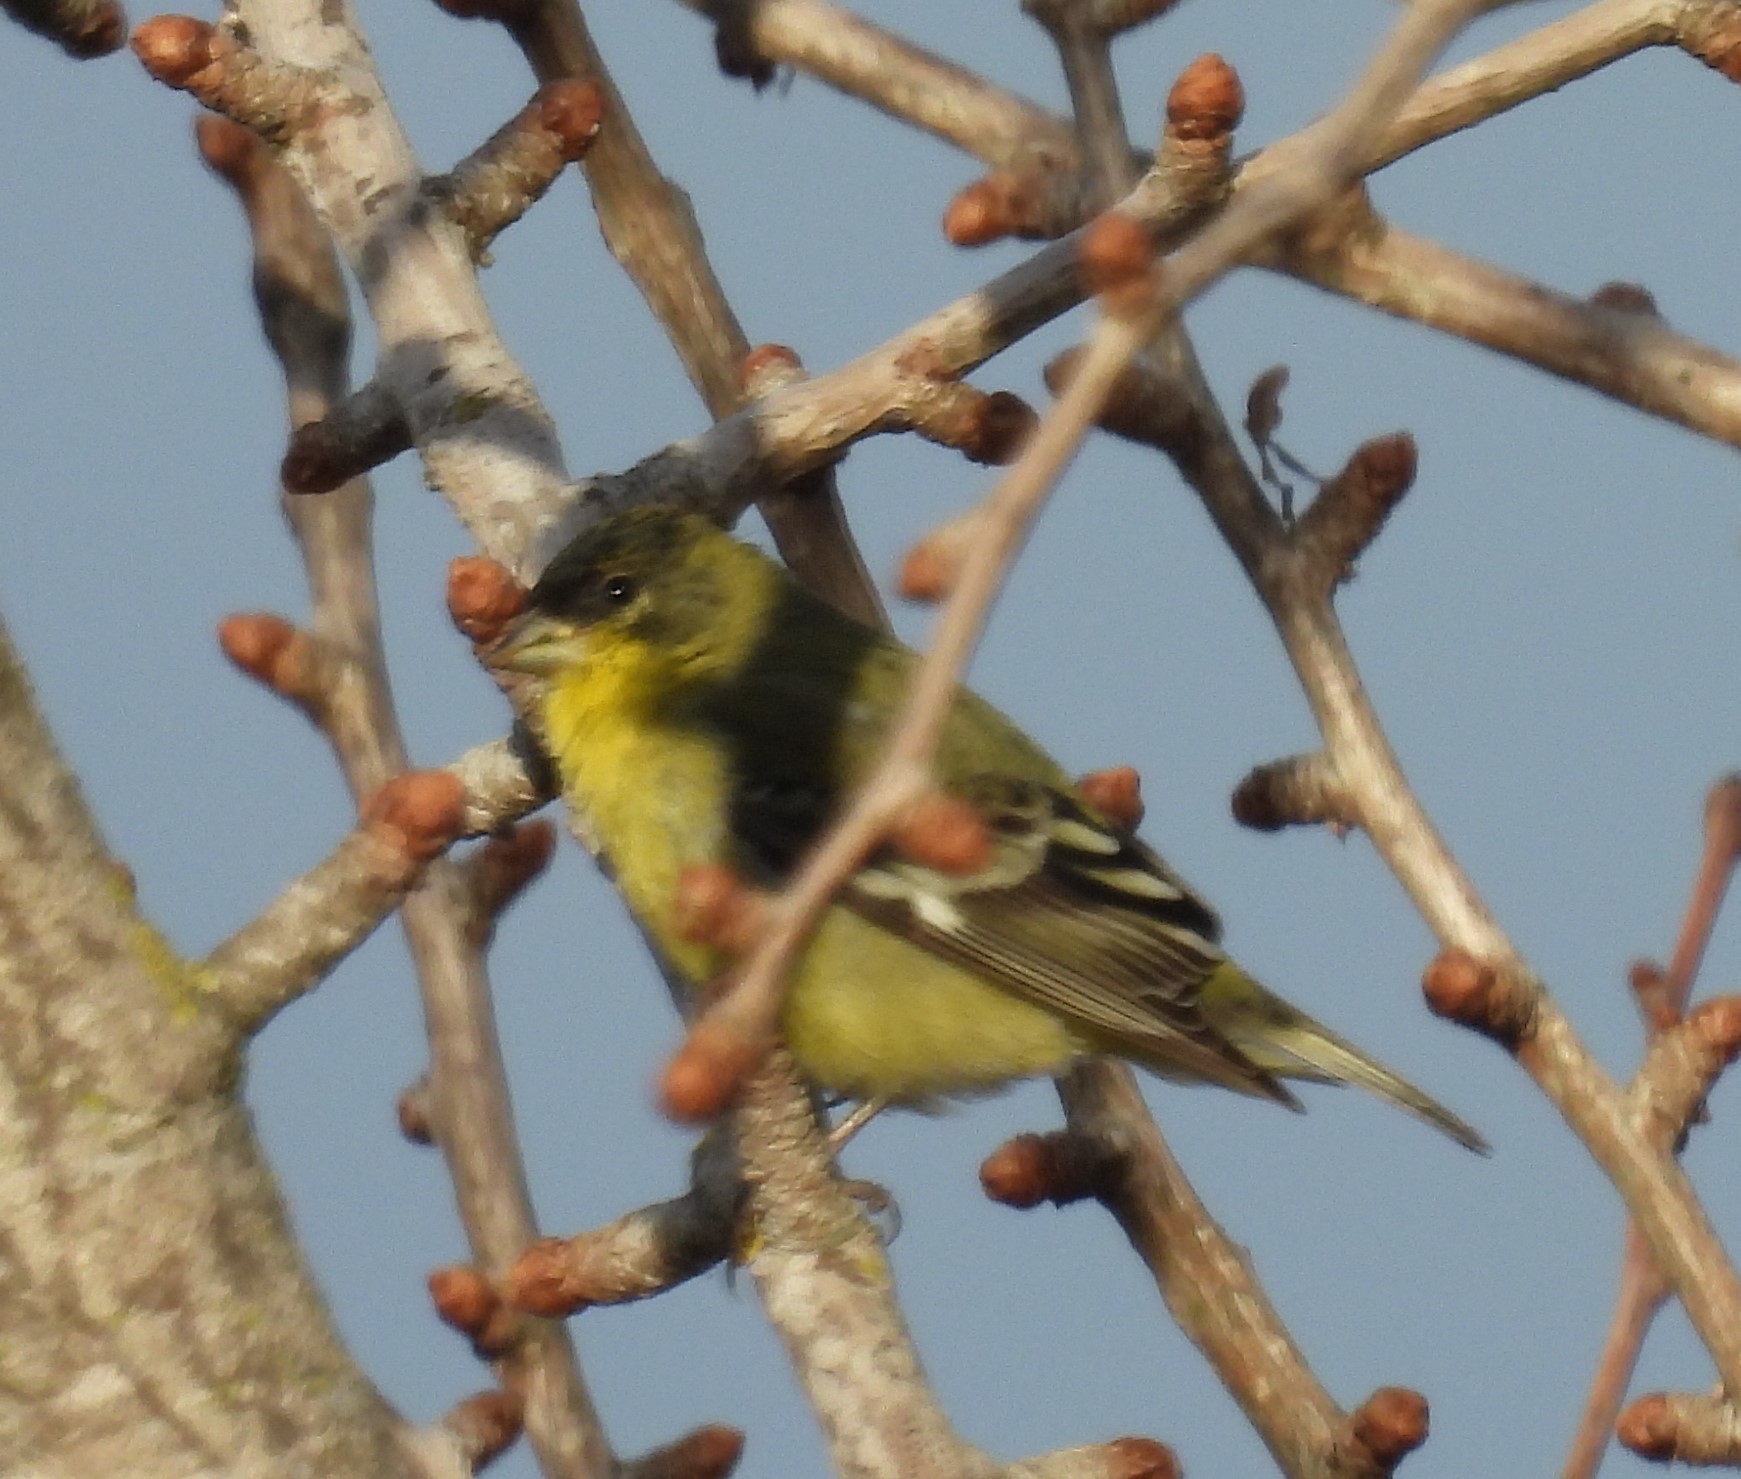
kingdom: Animalia
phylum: Chordata
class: Aves
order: Passeriformes
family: Fringillidae
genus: Spinus
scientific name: Spinus psaltria
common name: Lesser goldfinch
